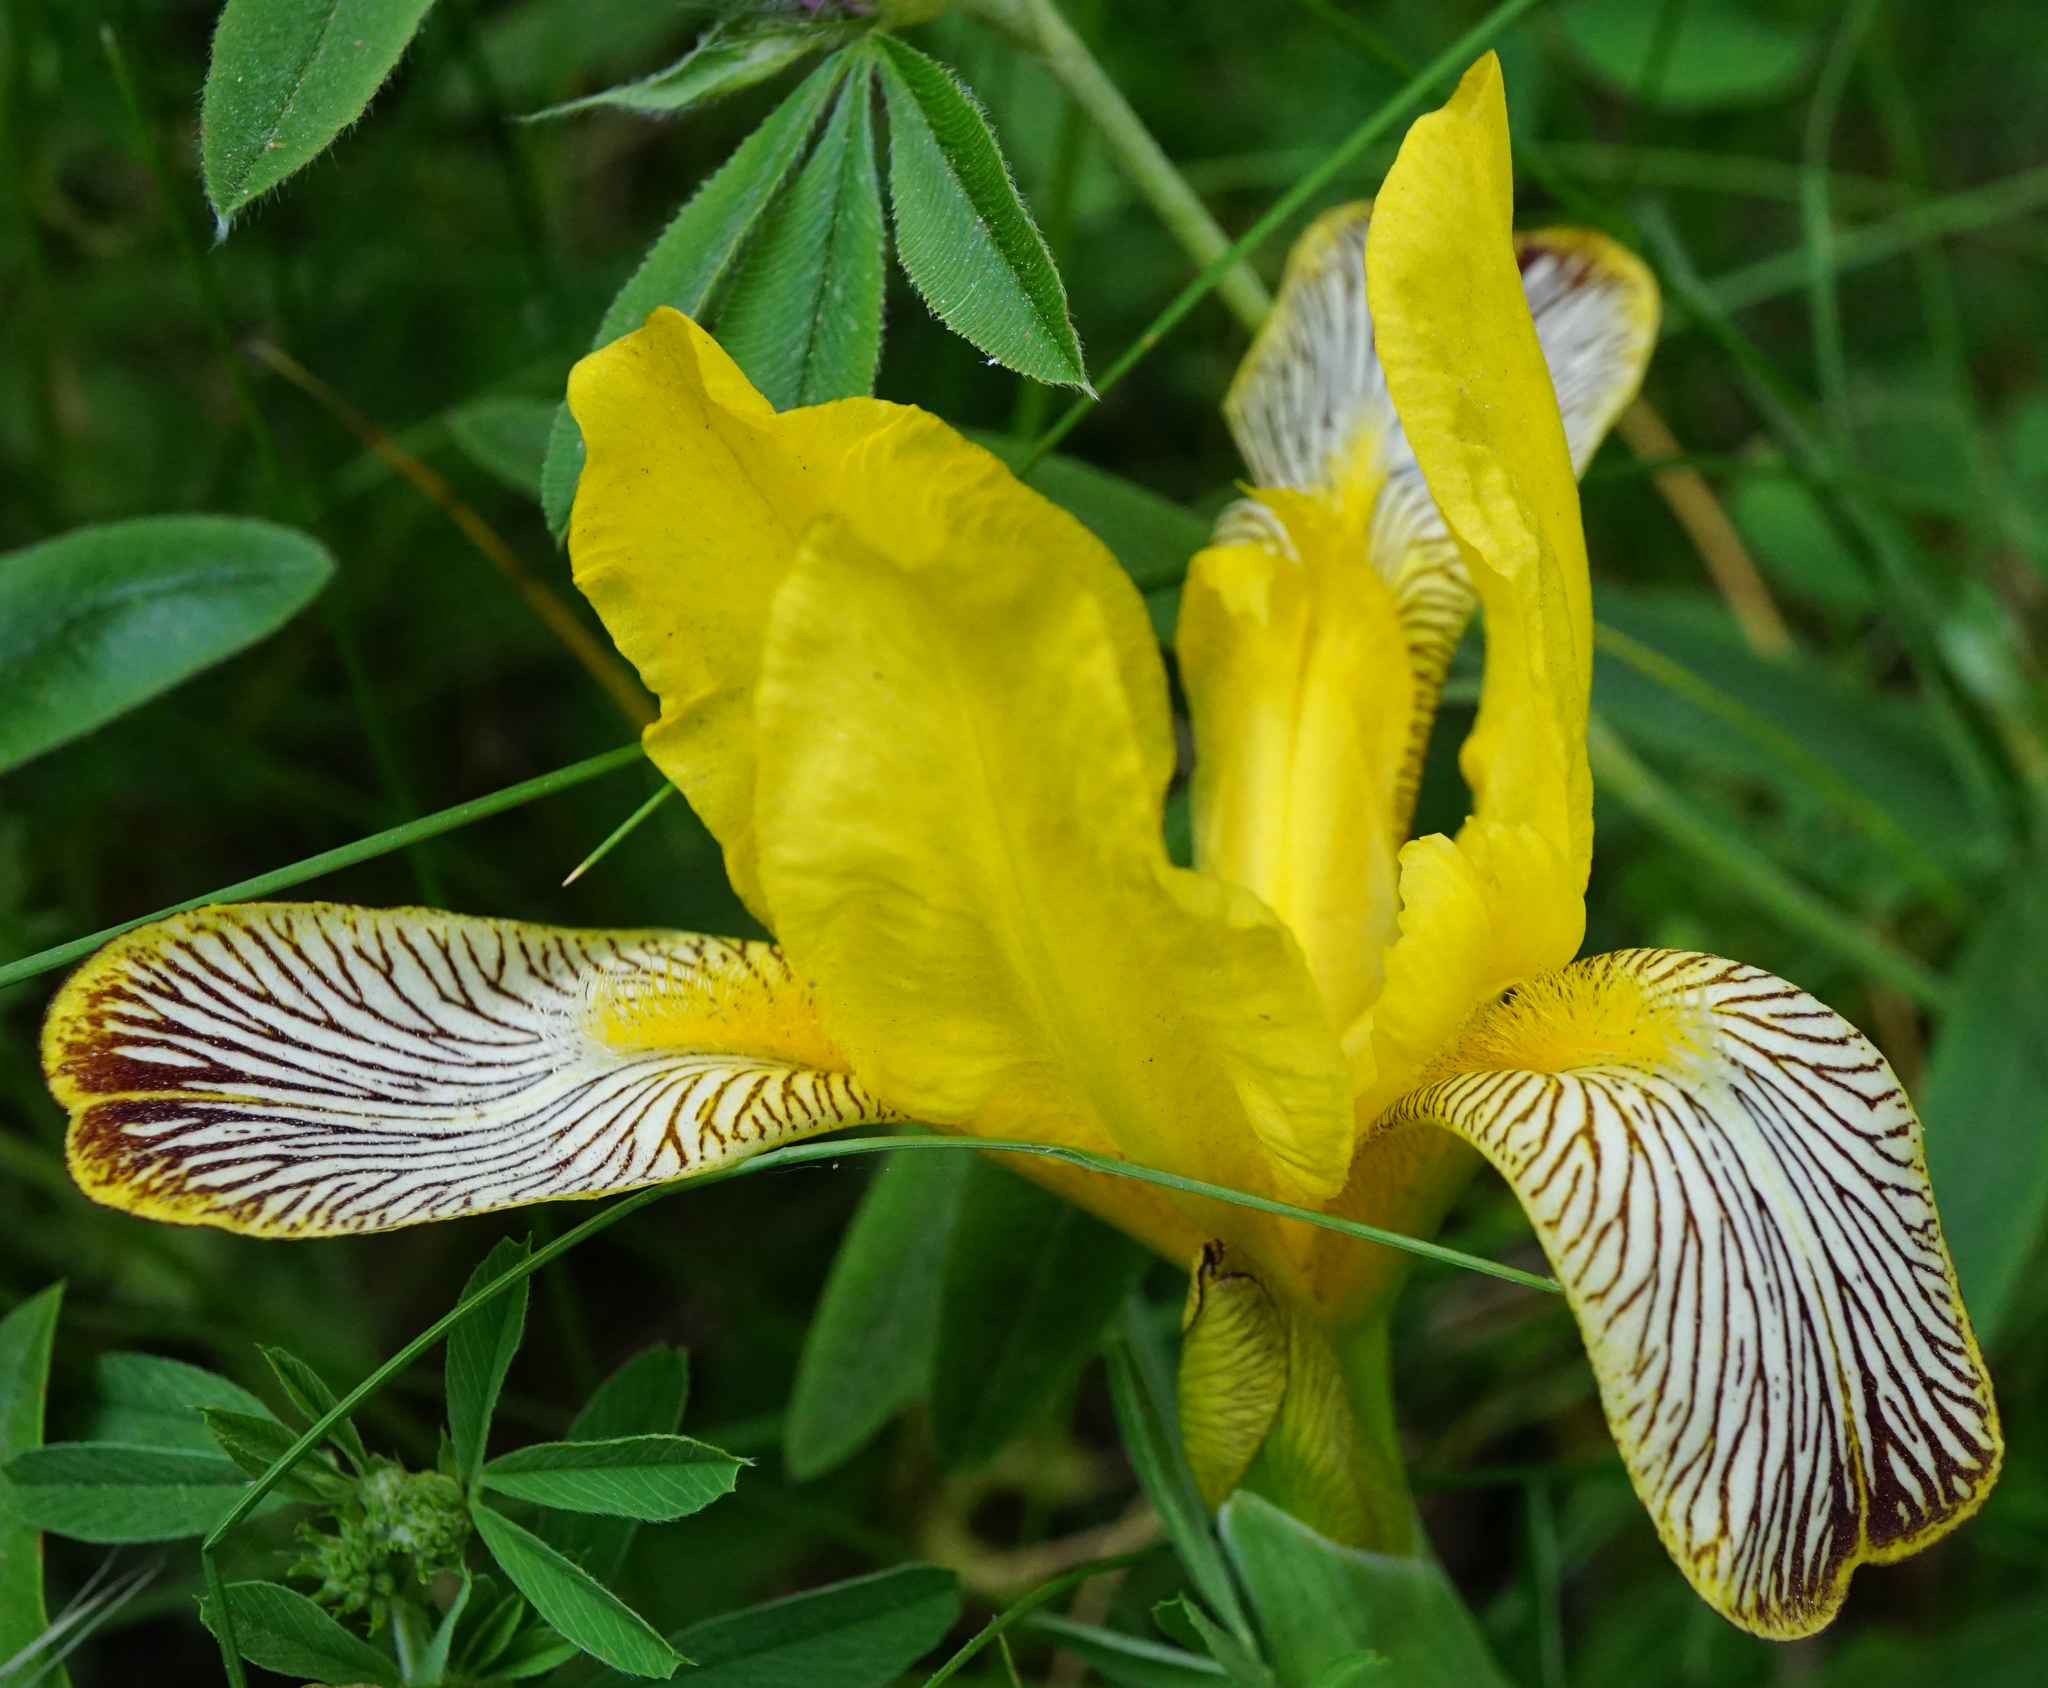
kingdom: Plantae
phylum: Tracheophyta
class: Liliopsida
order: Asparagales
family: Iridaceae
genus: Iris
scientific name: Iris variegata
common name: Hungarian iris
